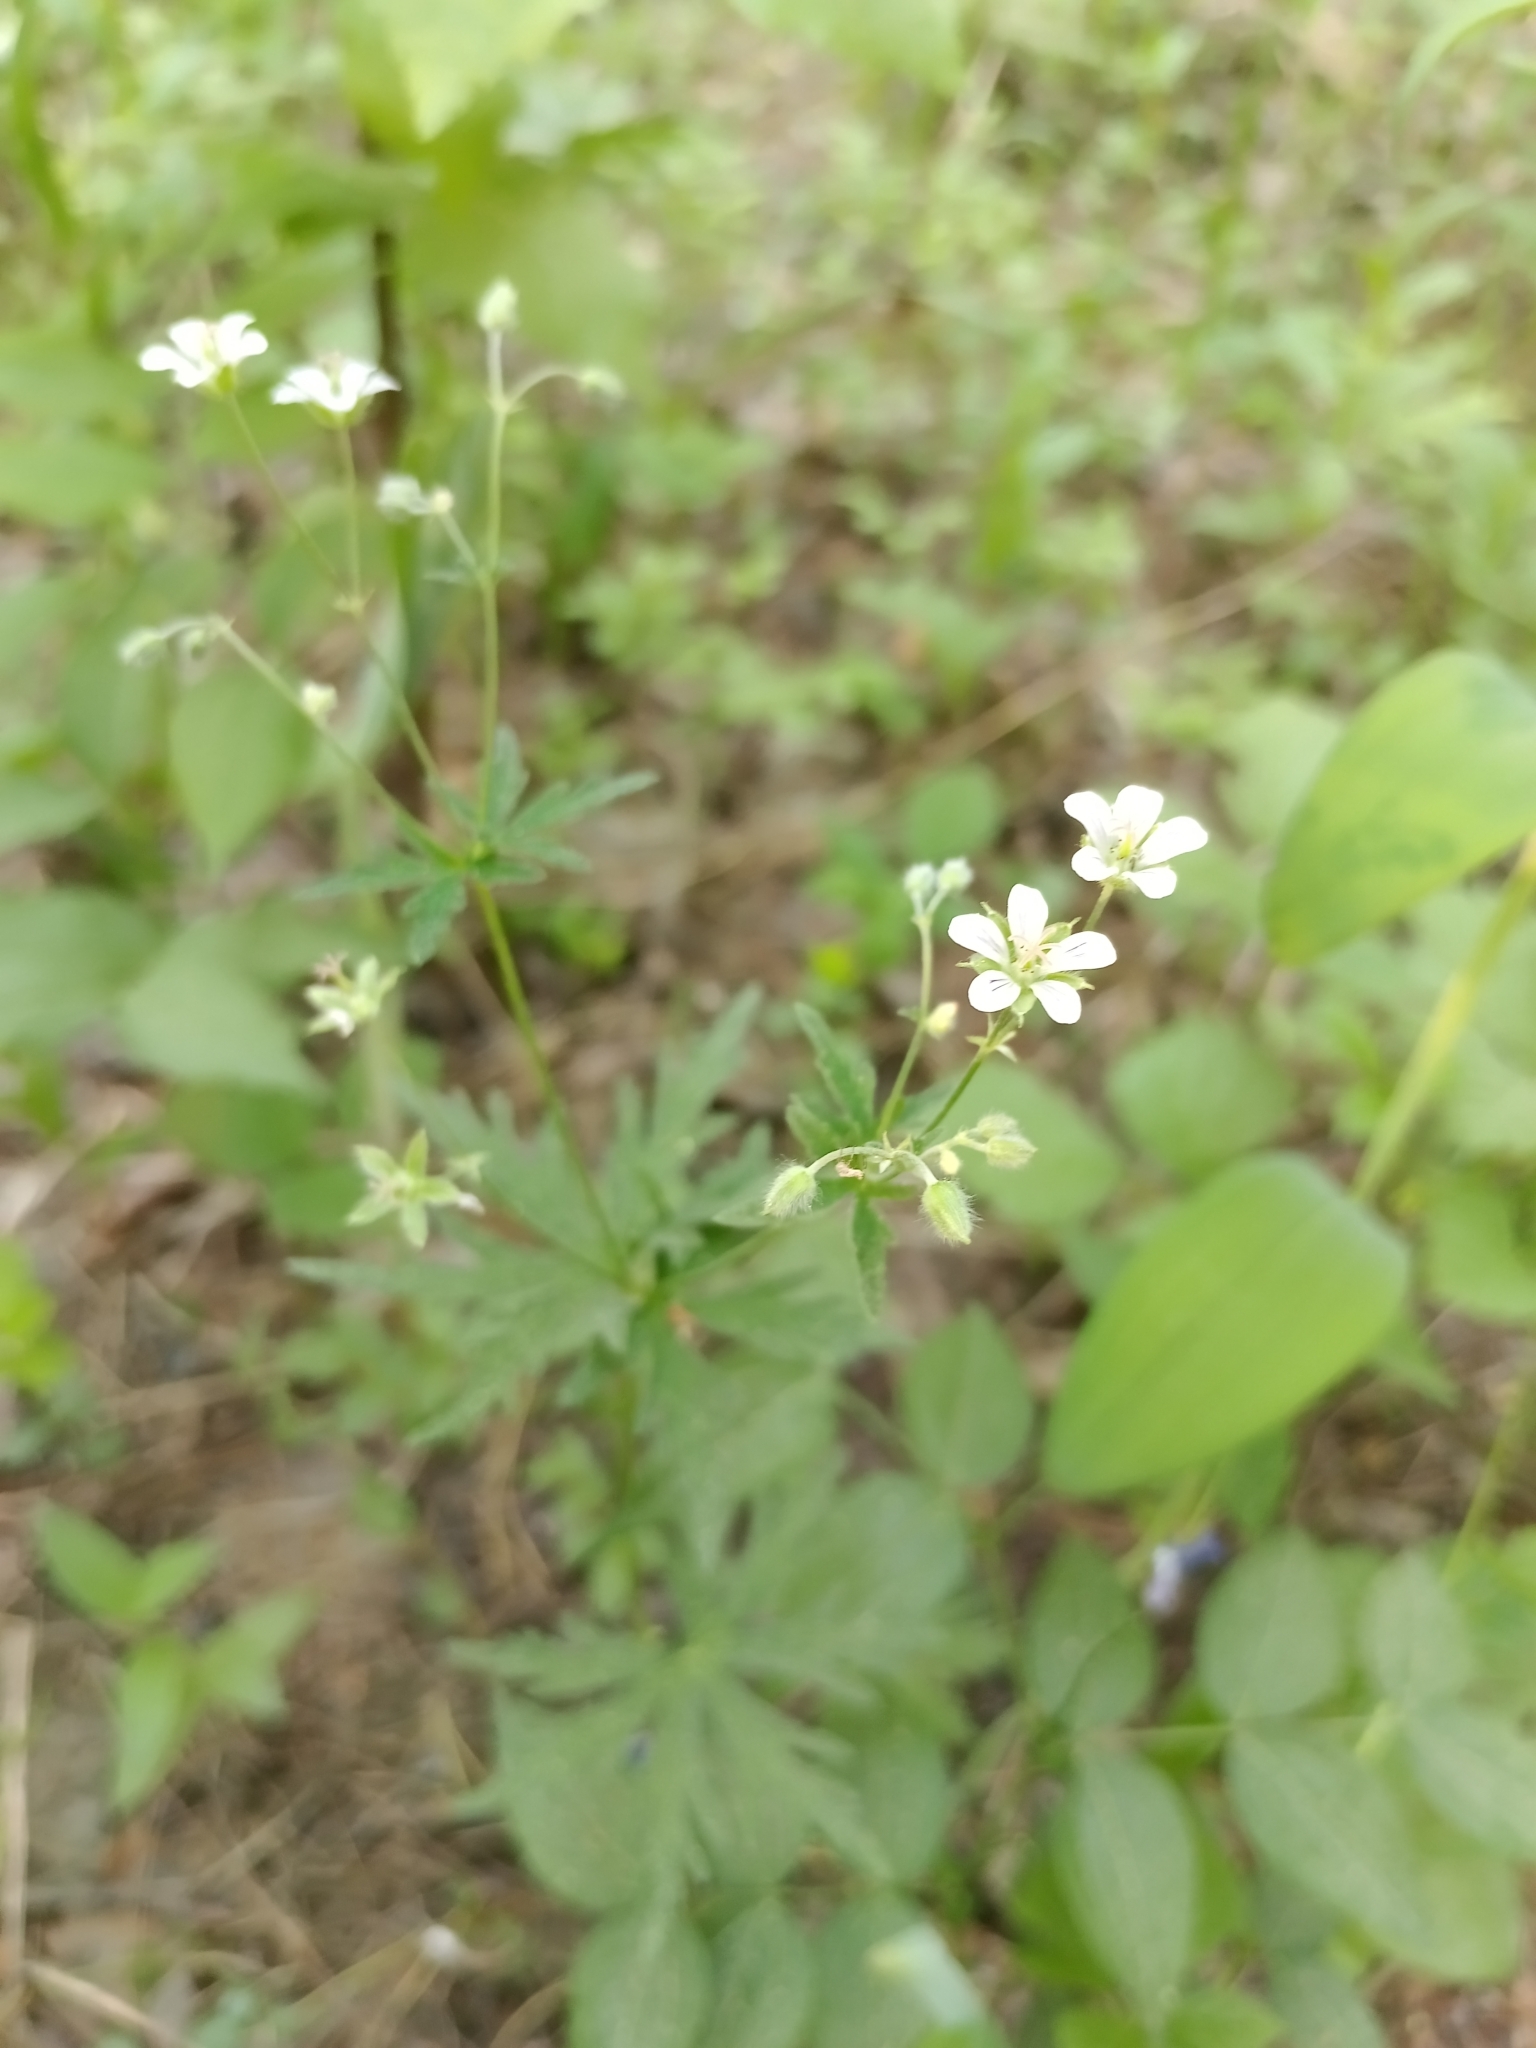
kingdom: Plantae
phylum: Tracheophyta
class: Magnoliopsida
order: Geraniales
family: Geraniaceae
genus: Geranium
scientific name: Geranium pseudosibiricum
